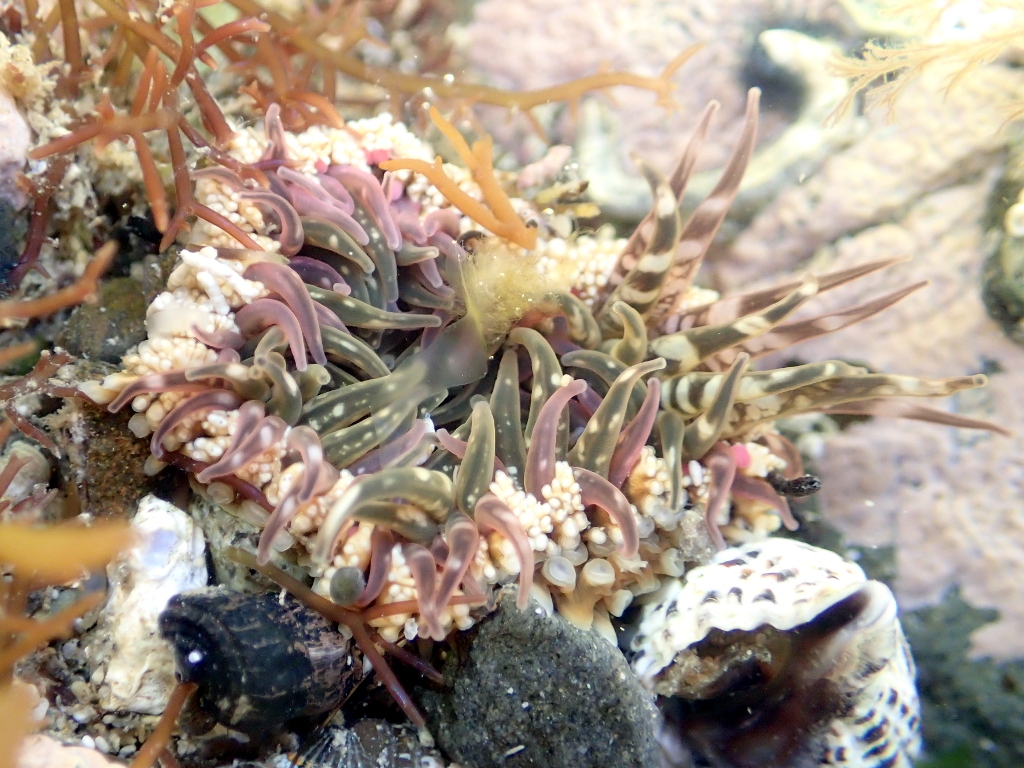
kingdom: Animalia
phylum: Cnidaria
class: Anthozoa
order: Actiniaria
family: Actiniidae
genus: Oulactis
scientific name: Oulactis muscosa
